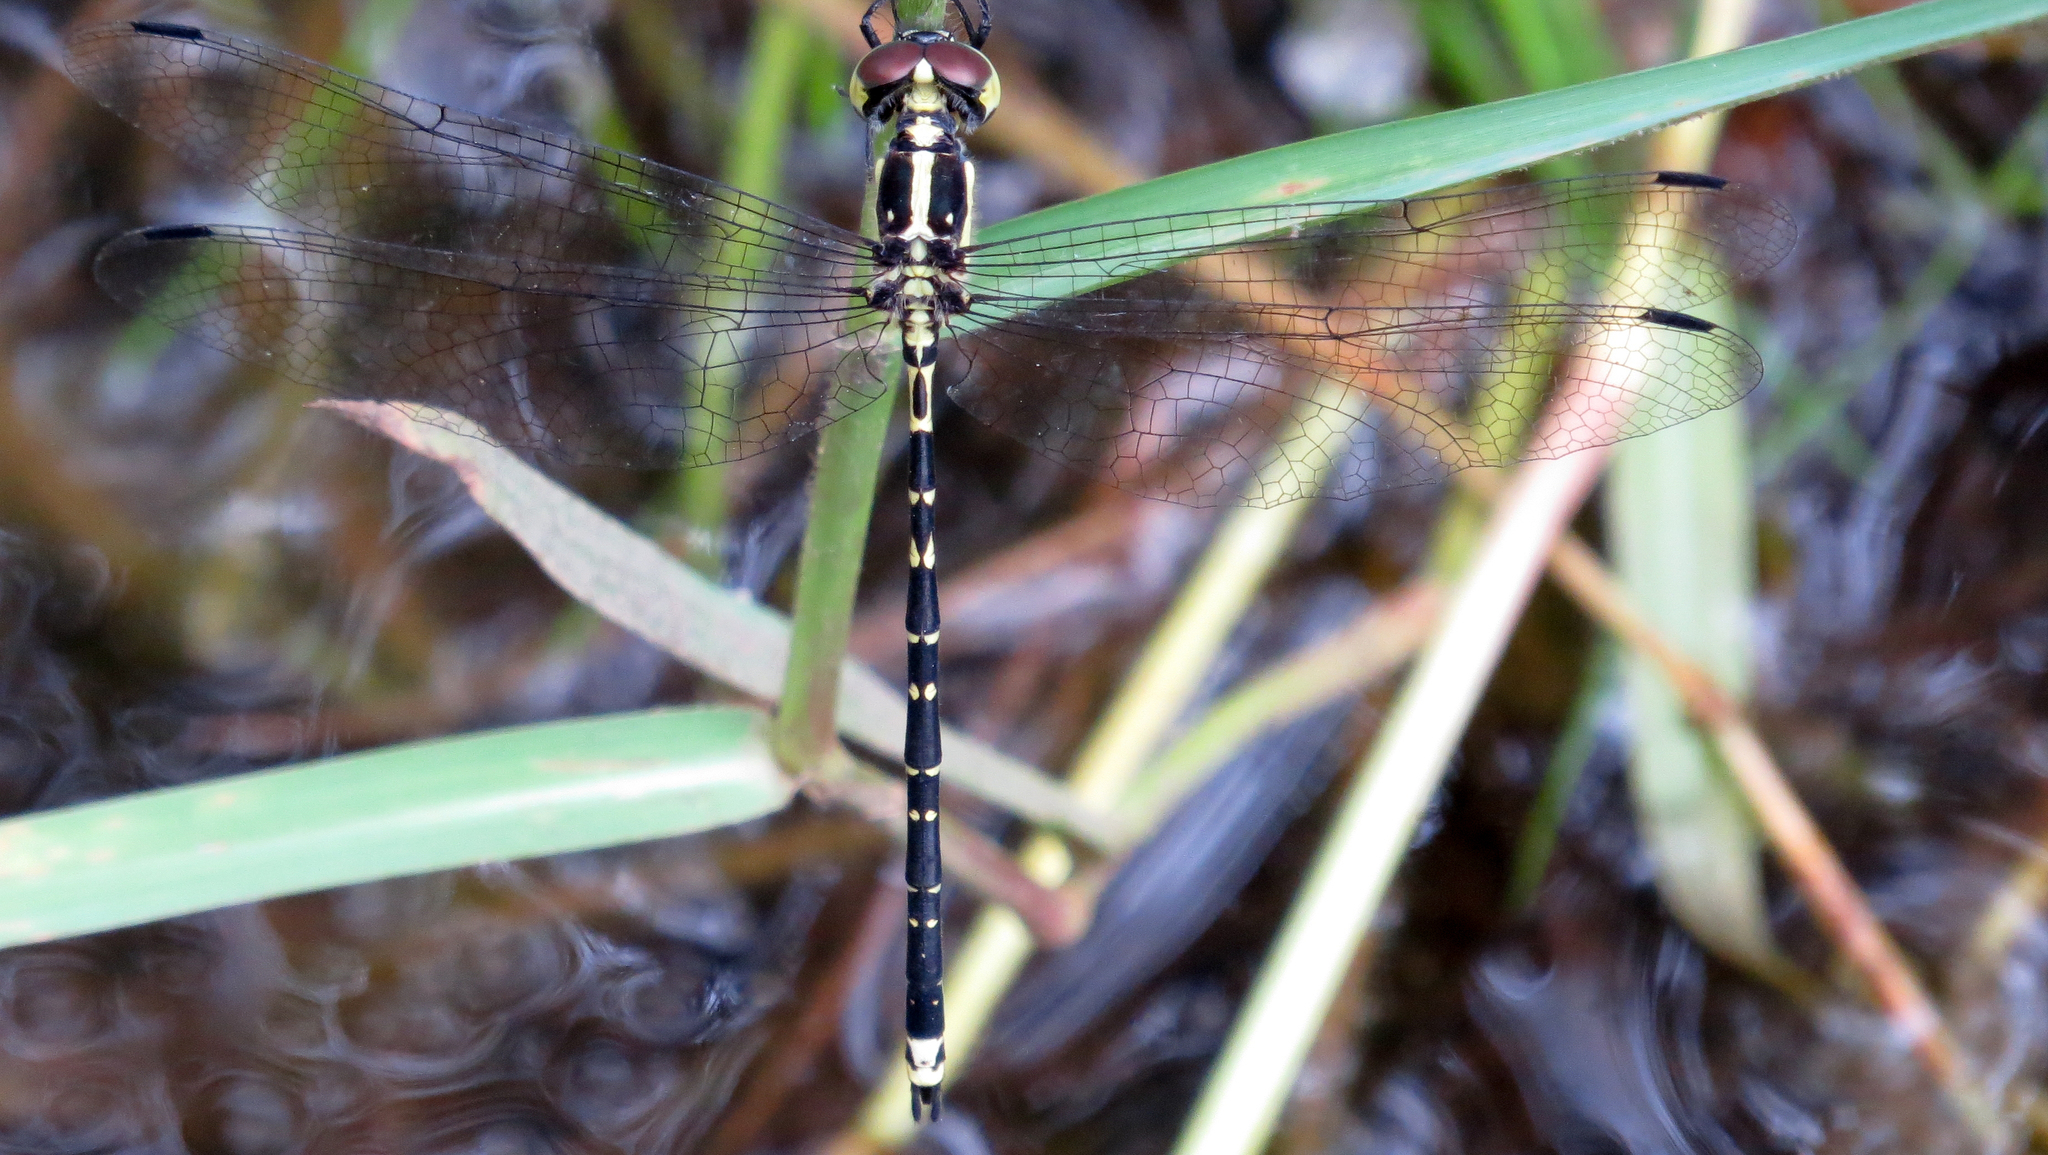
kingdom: Animalia
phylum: Arthropoda
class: Insecta
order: Odonata
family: Synthemistidae
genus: Choristhemis
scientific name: Choristhemis flavoterminata
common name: Yellow-tipped tigertail
